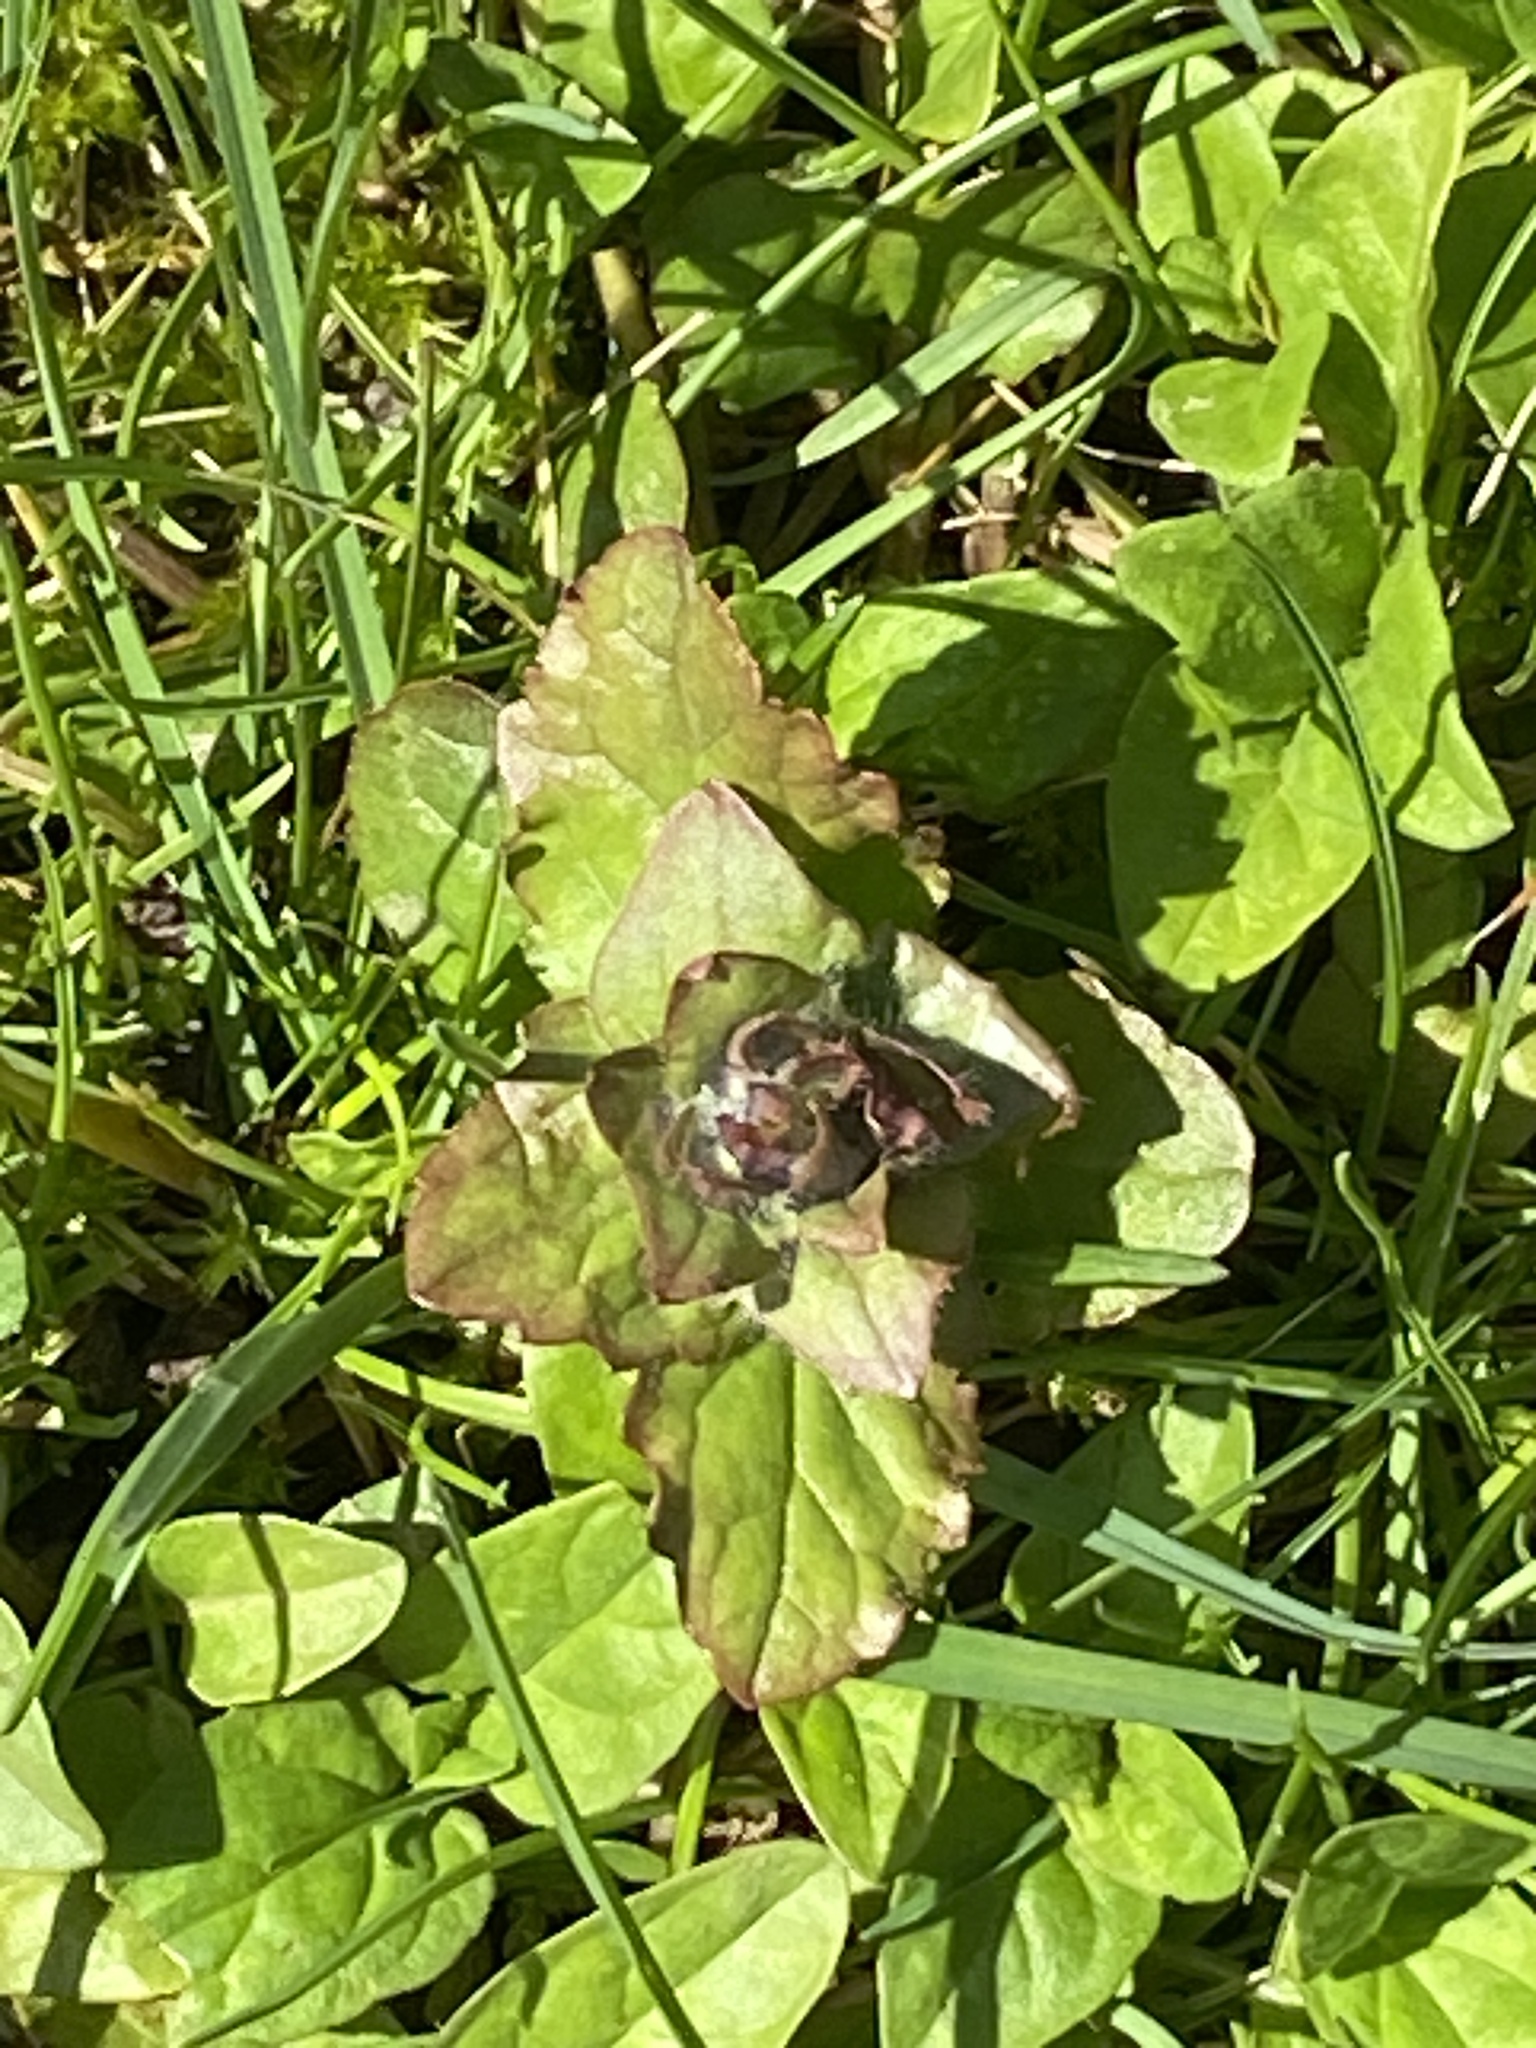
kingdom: Plantae
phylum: Tracheophyta
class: Magnoliopsida
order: Lamiales
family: Lamiaceae
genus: Ajuga
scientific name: Ajuga reptans
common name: Bugle
